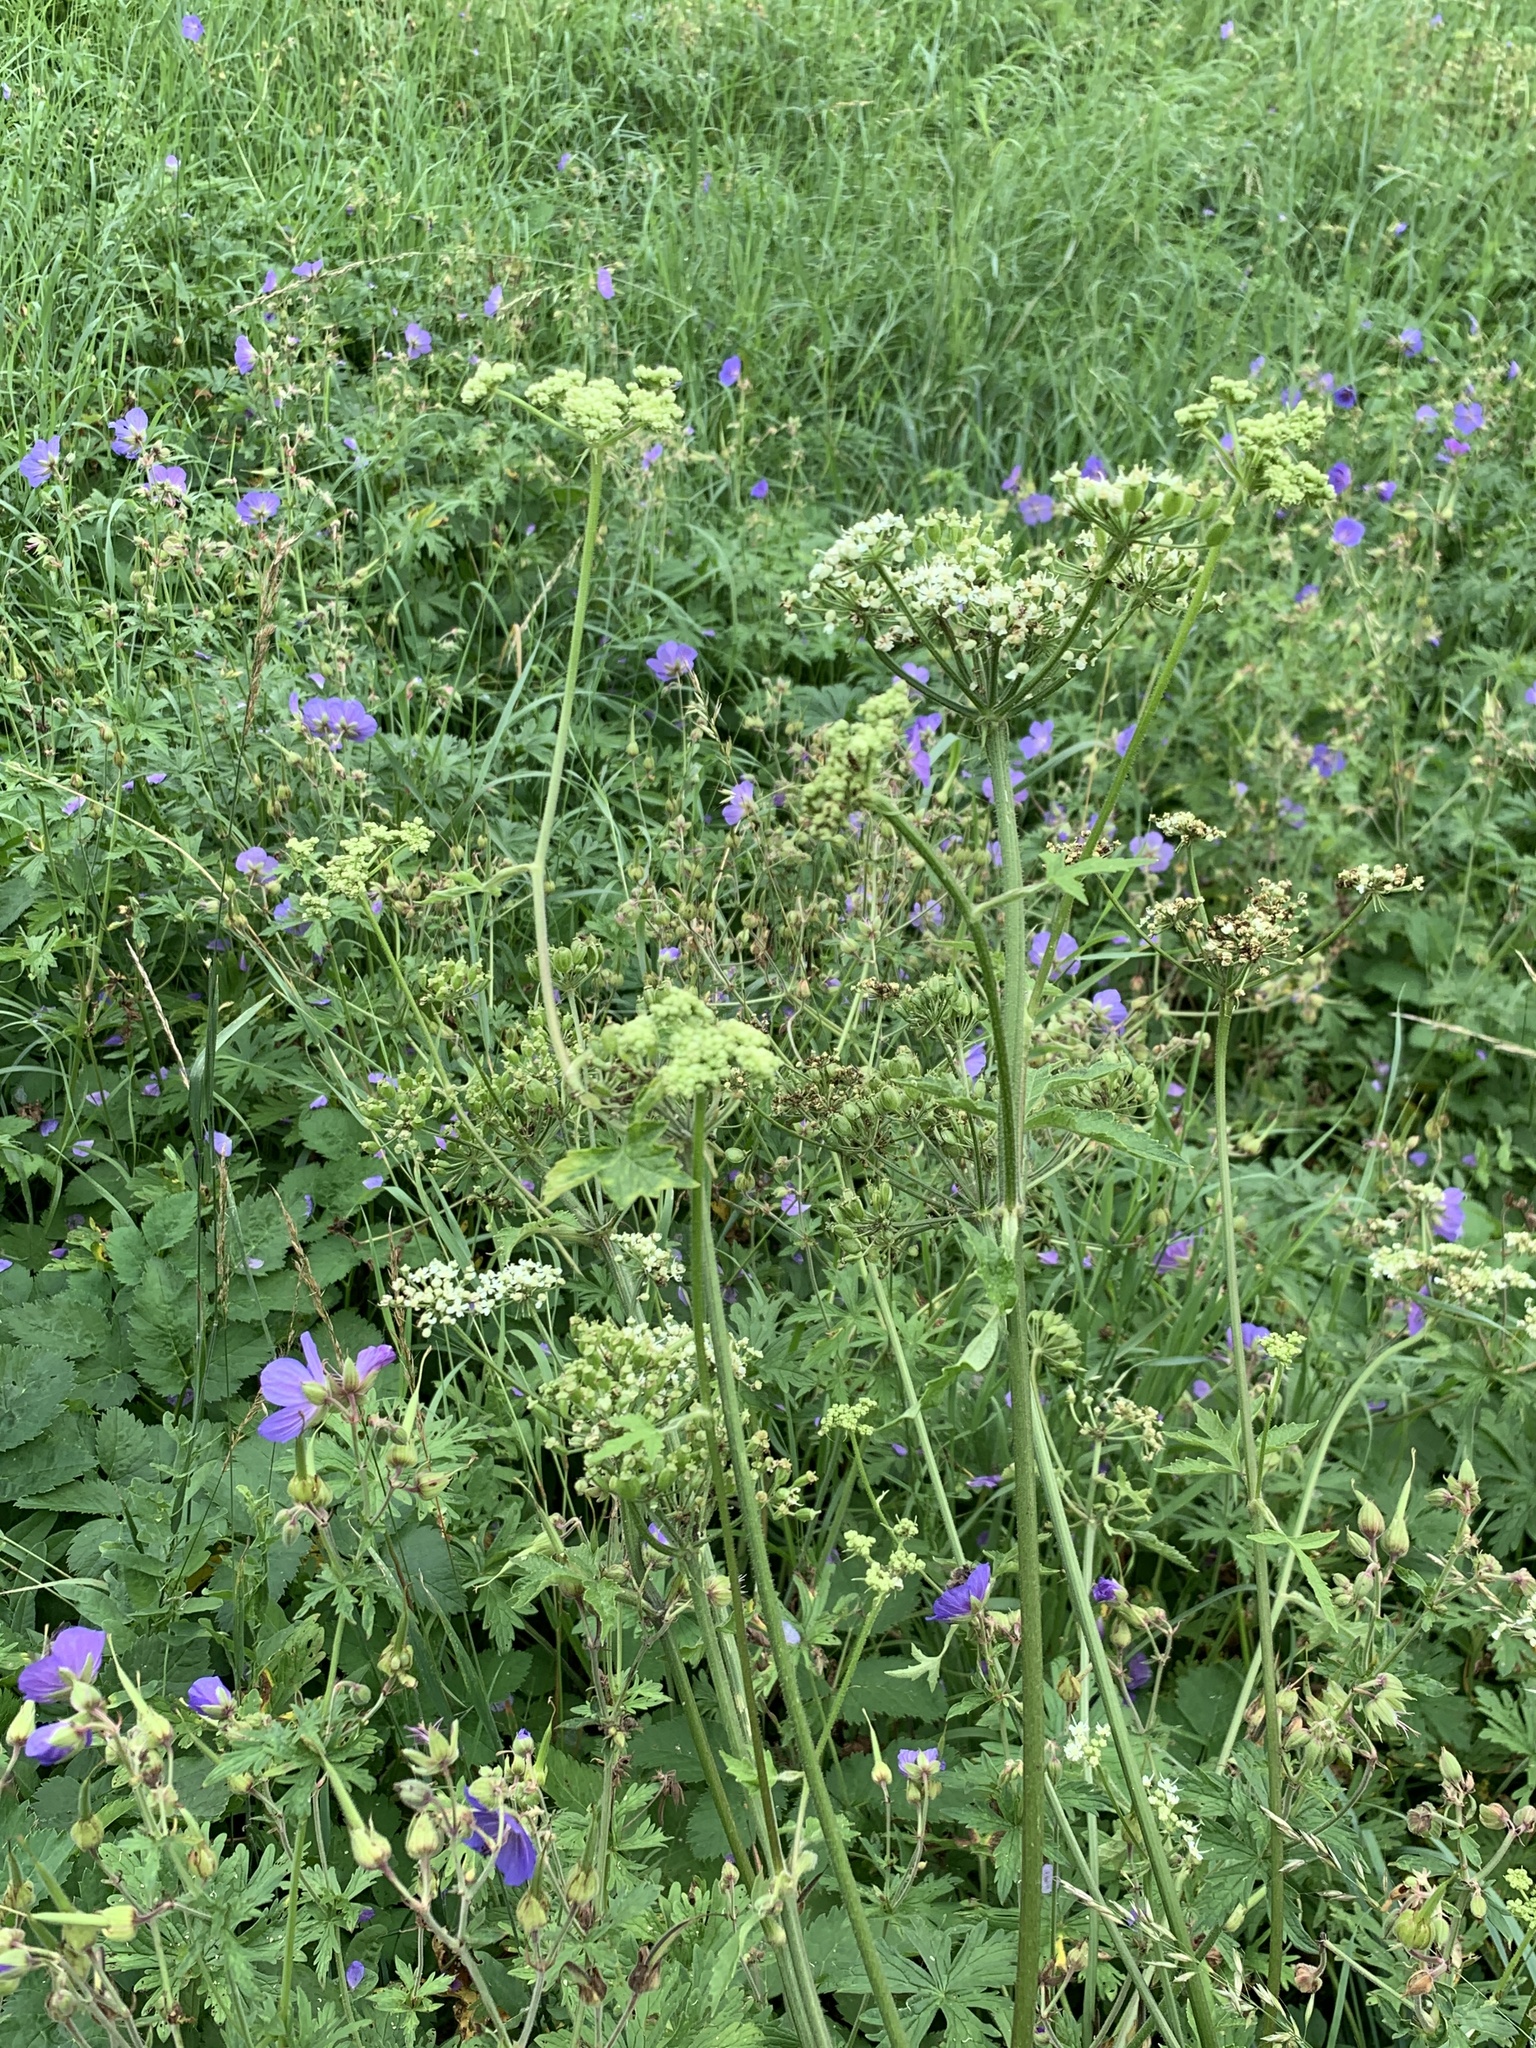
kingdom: Plantae
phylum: Tracheophyta
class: Magnoliopsida
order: Apiales
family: Apiaceae
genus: Heracleum
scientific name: Heracleum sphondylium
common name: Hogweed
